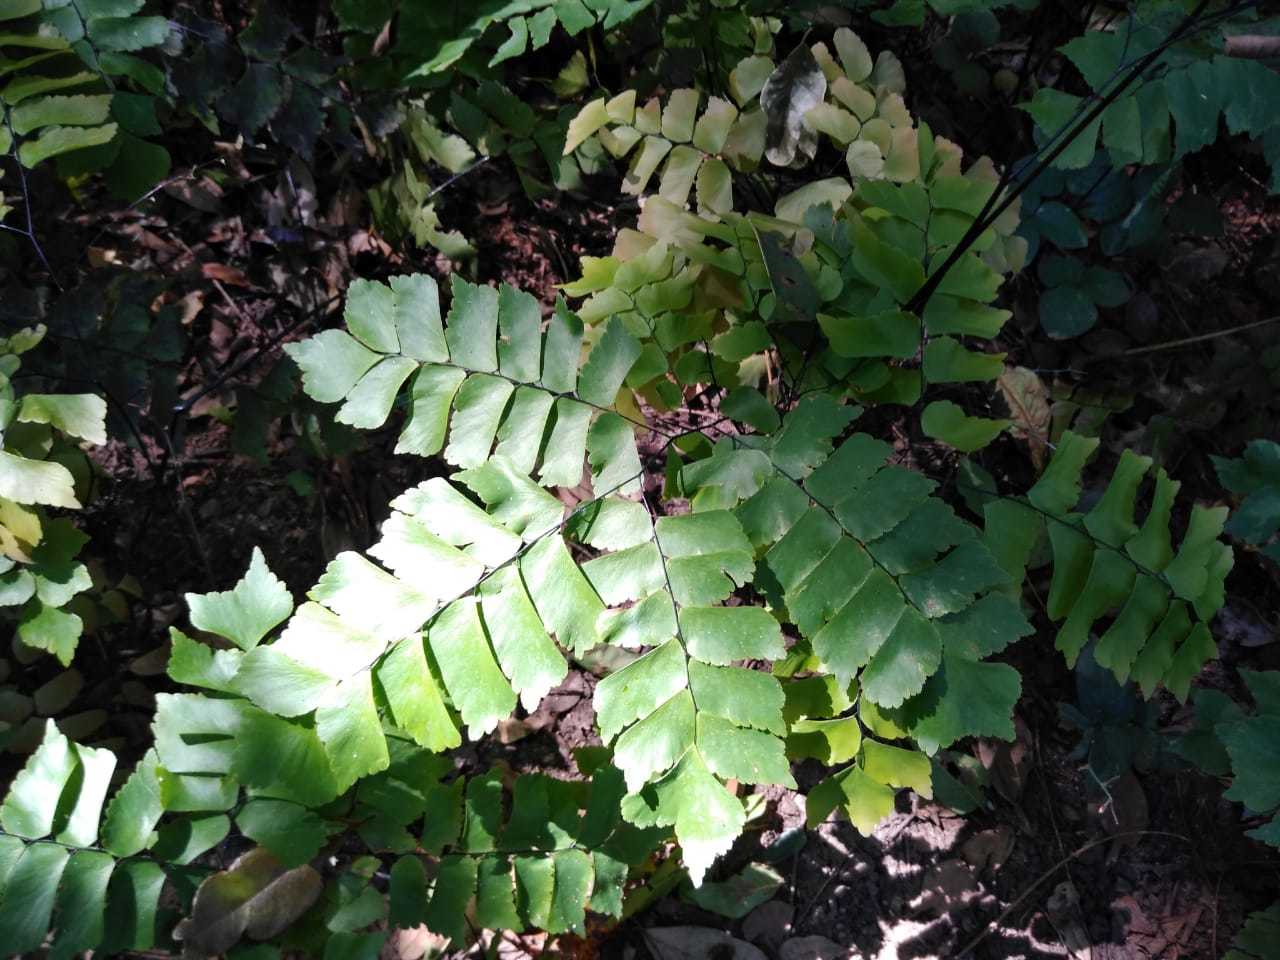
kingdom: Plantae
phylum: Tracheophyta
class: Polypodiopsida
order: Polypodiales
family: Pteridaceae
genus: Adiantum
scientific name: Adiantum trapeziforme
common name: Diamond maidenhair
